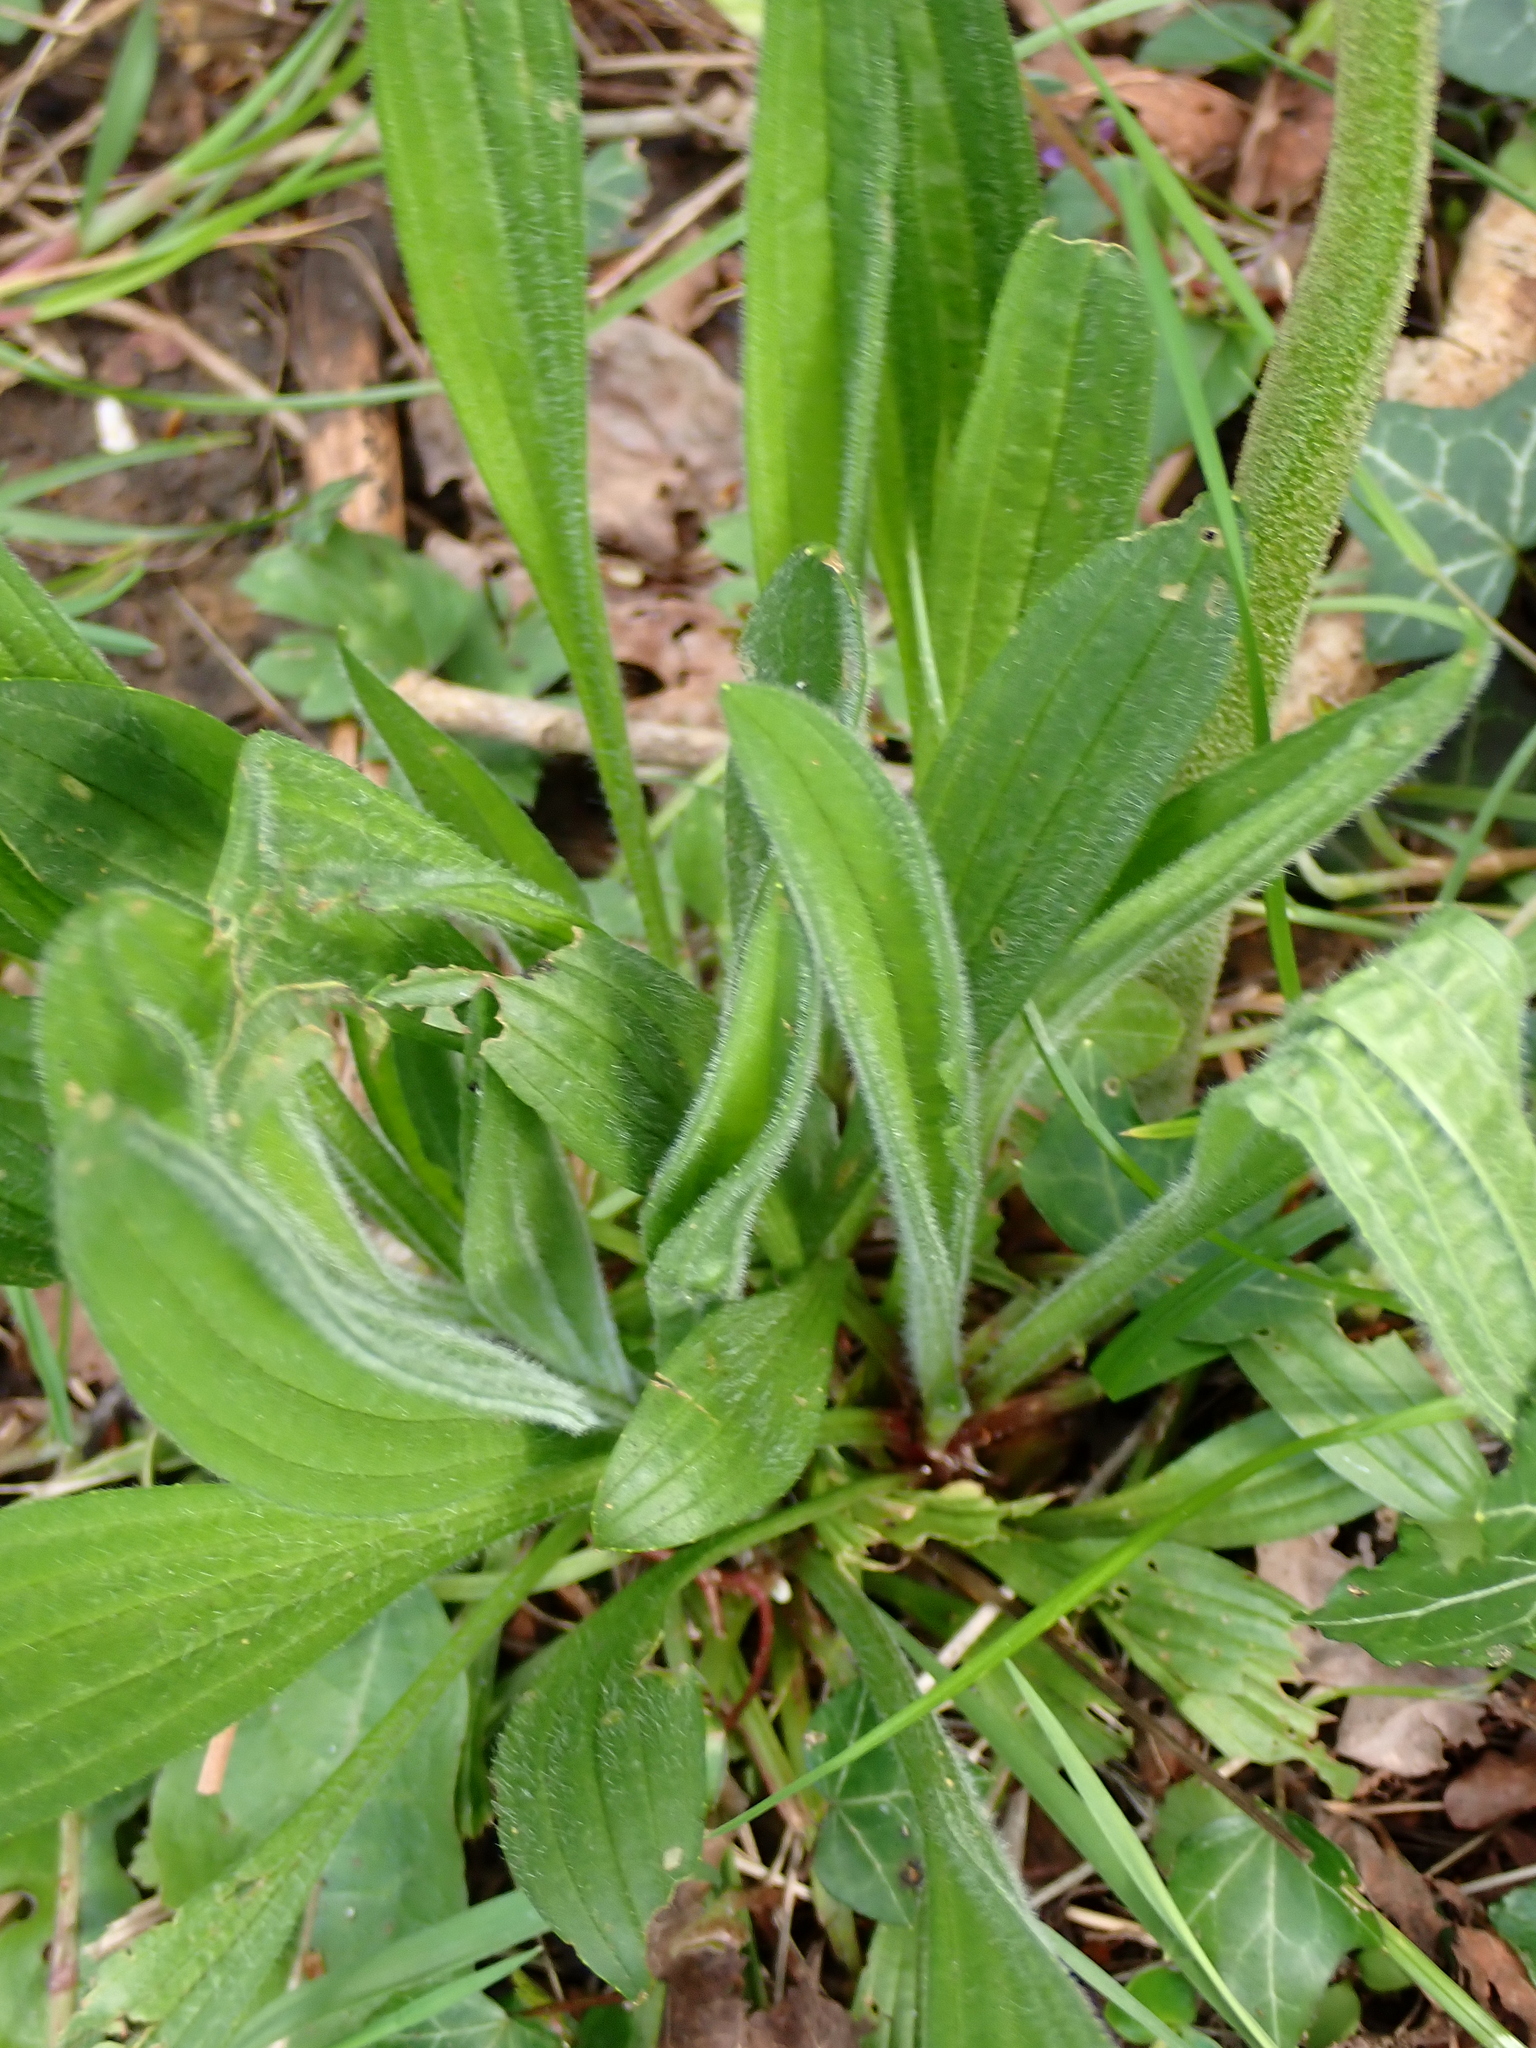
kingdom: Plantae
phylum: Tracheophyta
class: Magnoliopsida
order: Lamiales
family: Plantaginaceae
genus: Plantago
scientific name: Plantago lanceolata
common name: Ribwort plantain
